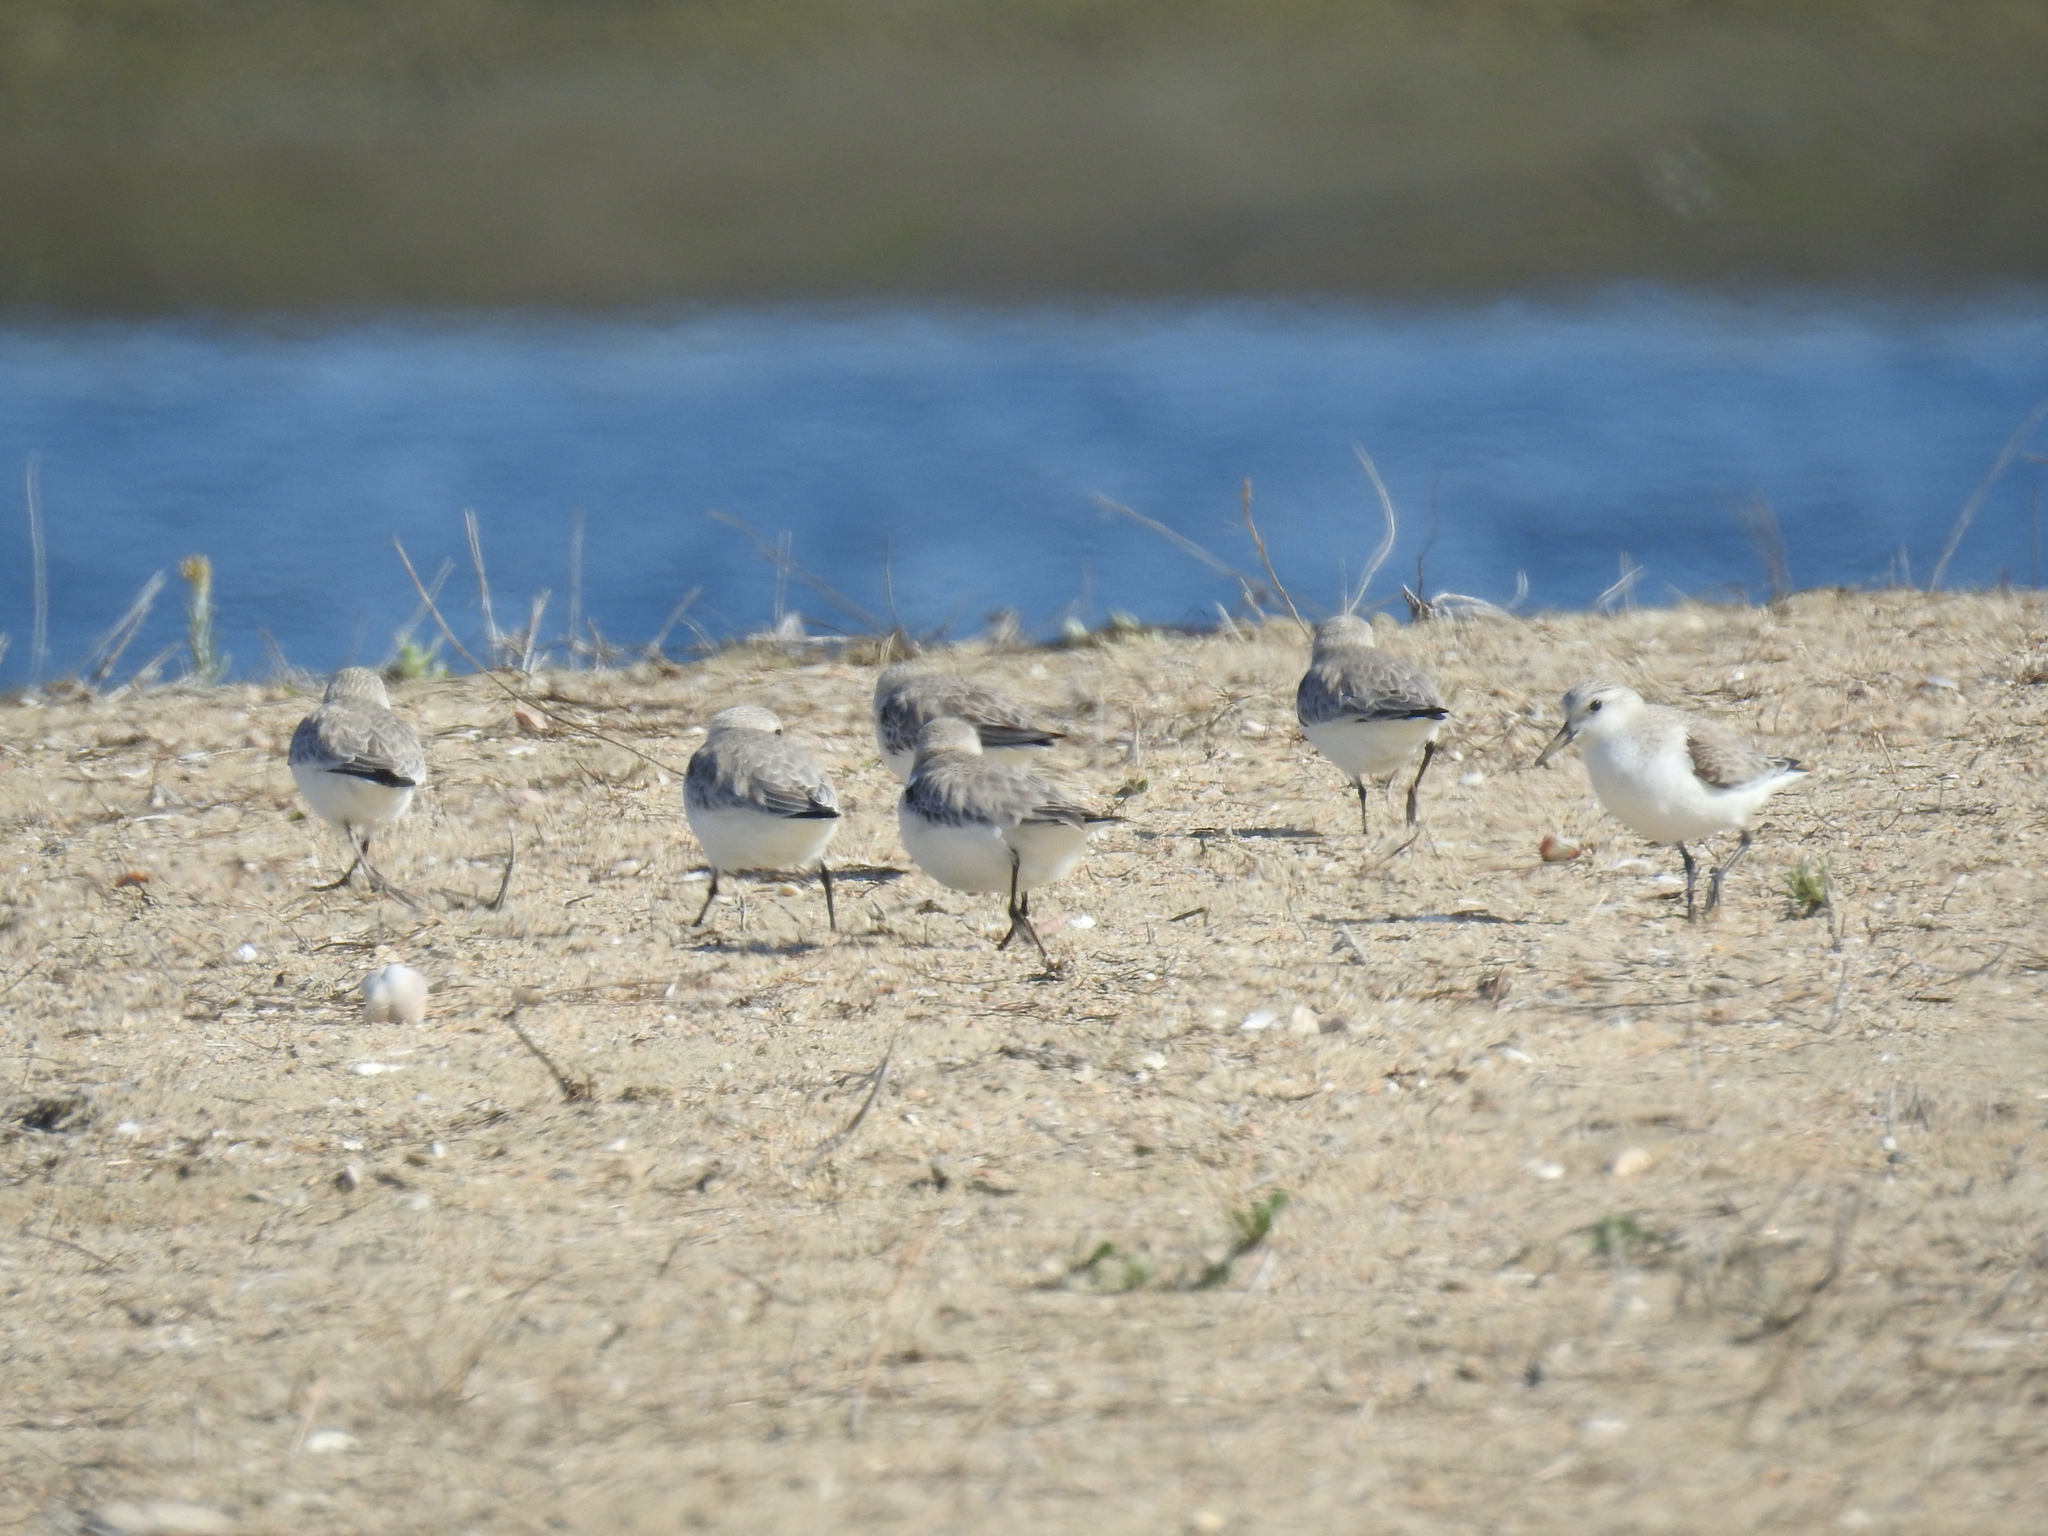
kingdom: Animalia
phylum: Chordata
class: Aves
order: Charadriiformes
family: Scolopacidae
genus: Calidris
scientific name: Calidris alba
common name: Sanderling
